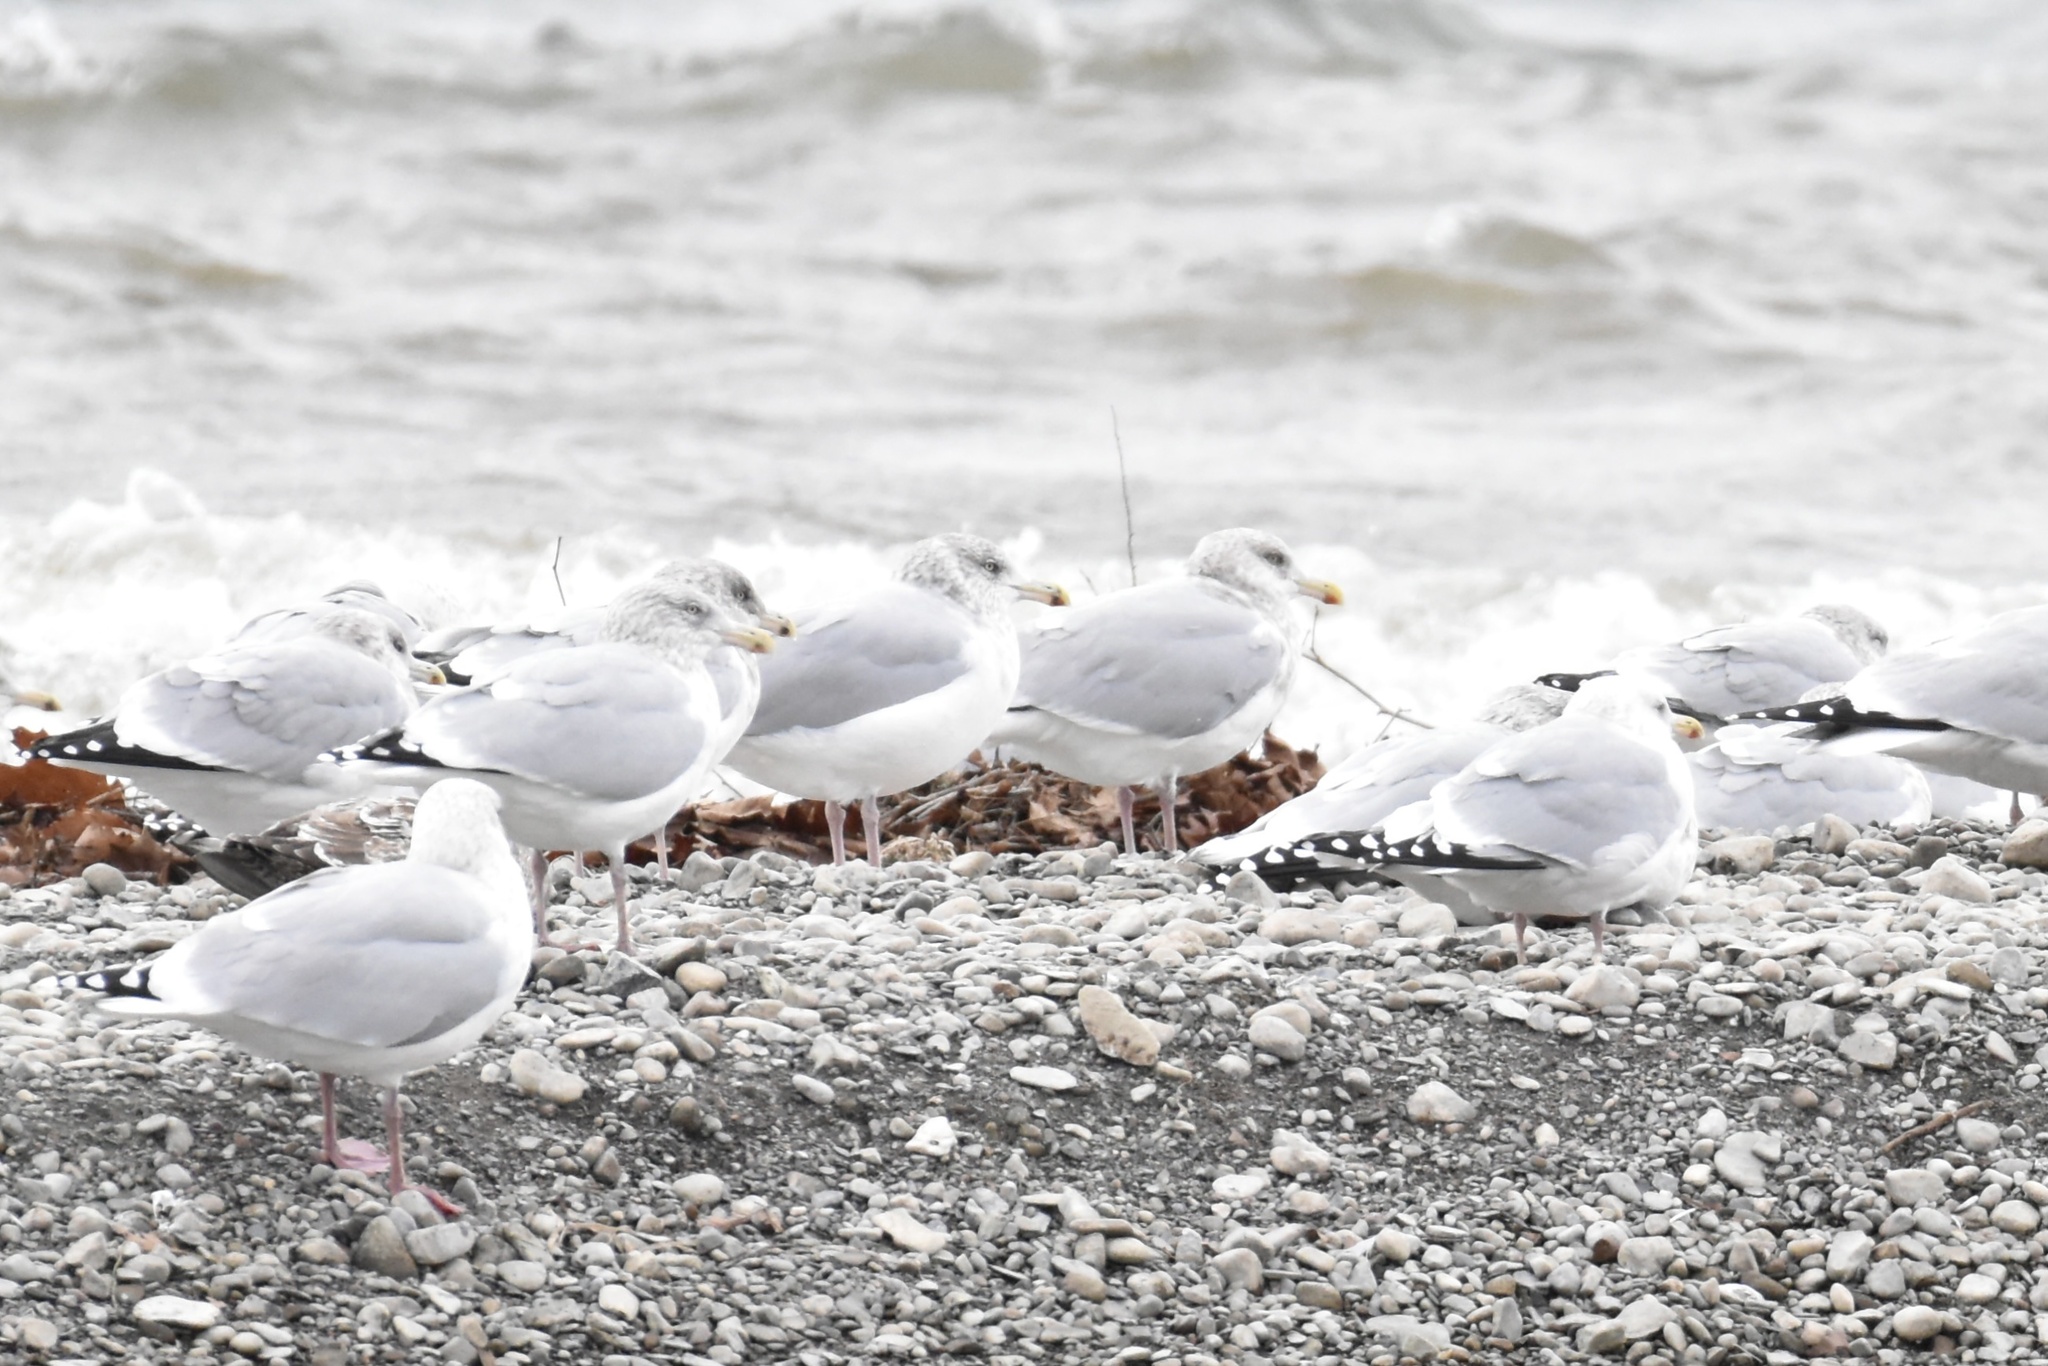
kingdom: Animalia
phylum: Chordata
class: Aves
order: Charadriiformes
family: Laridae
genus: Larus
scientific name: Larus argentatus
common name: Herring gull
